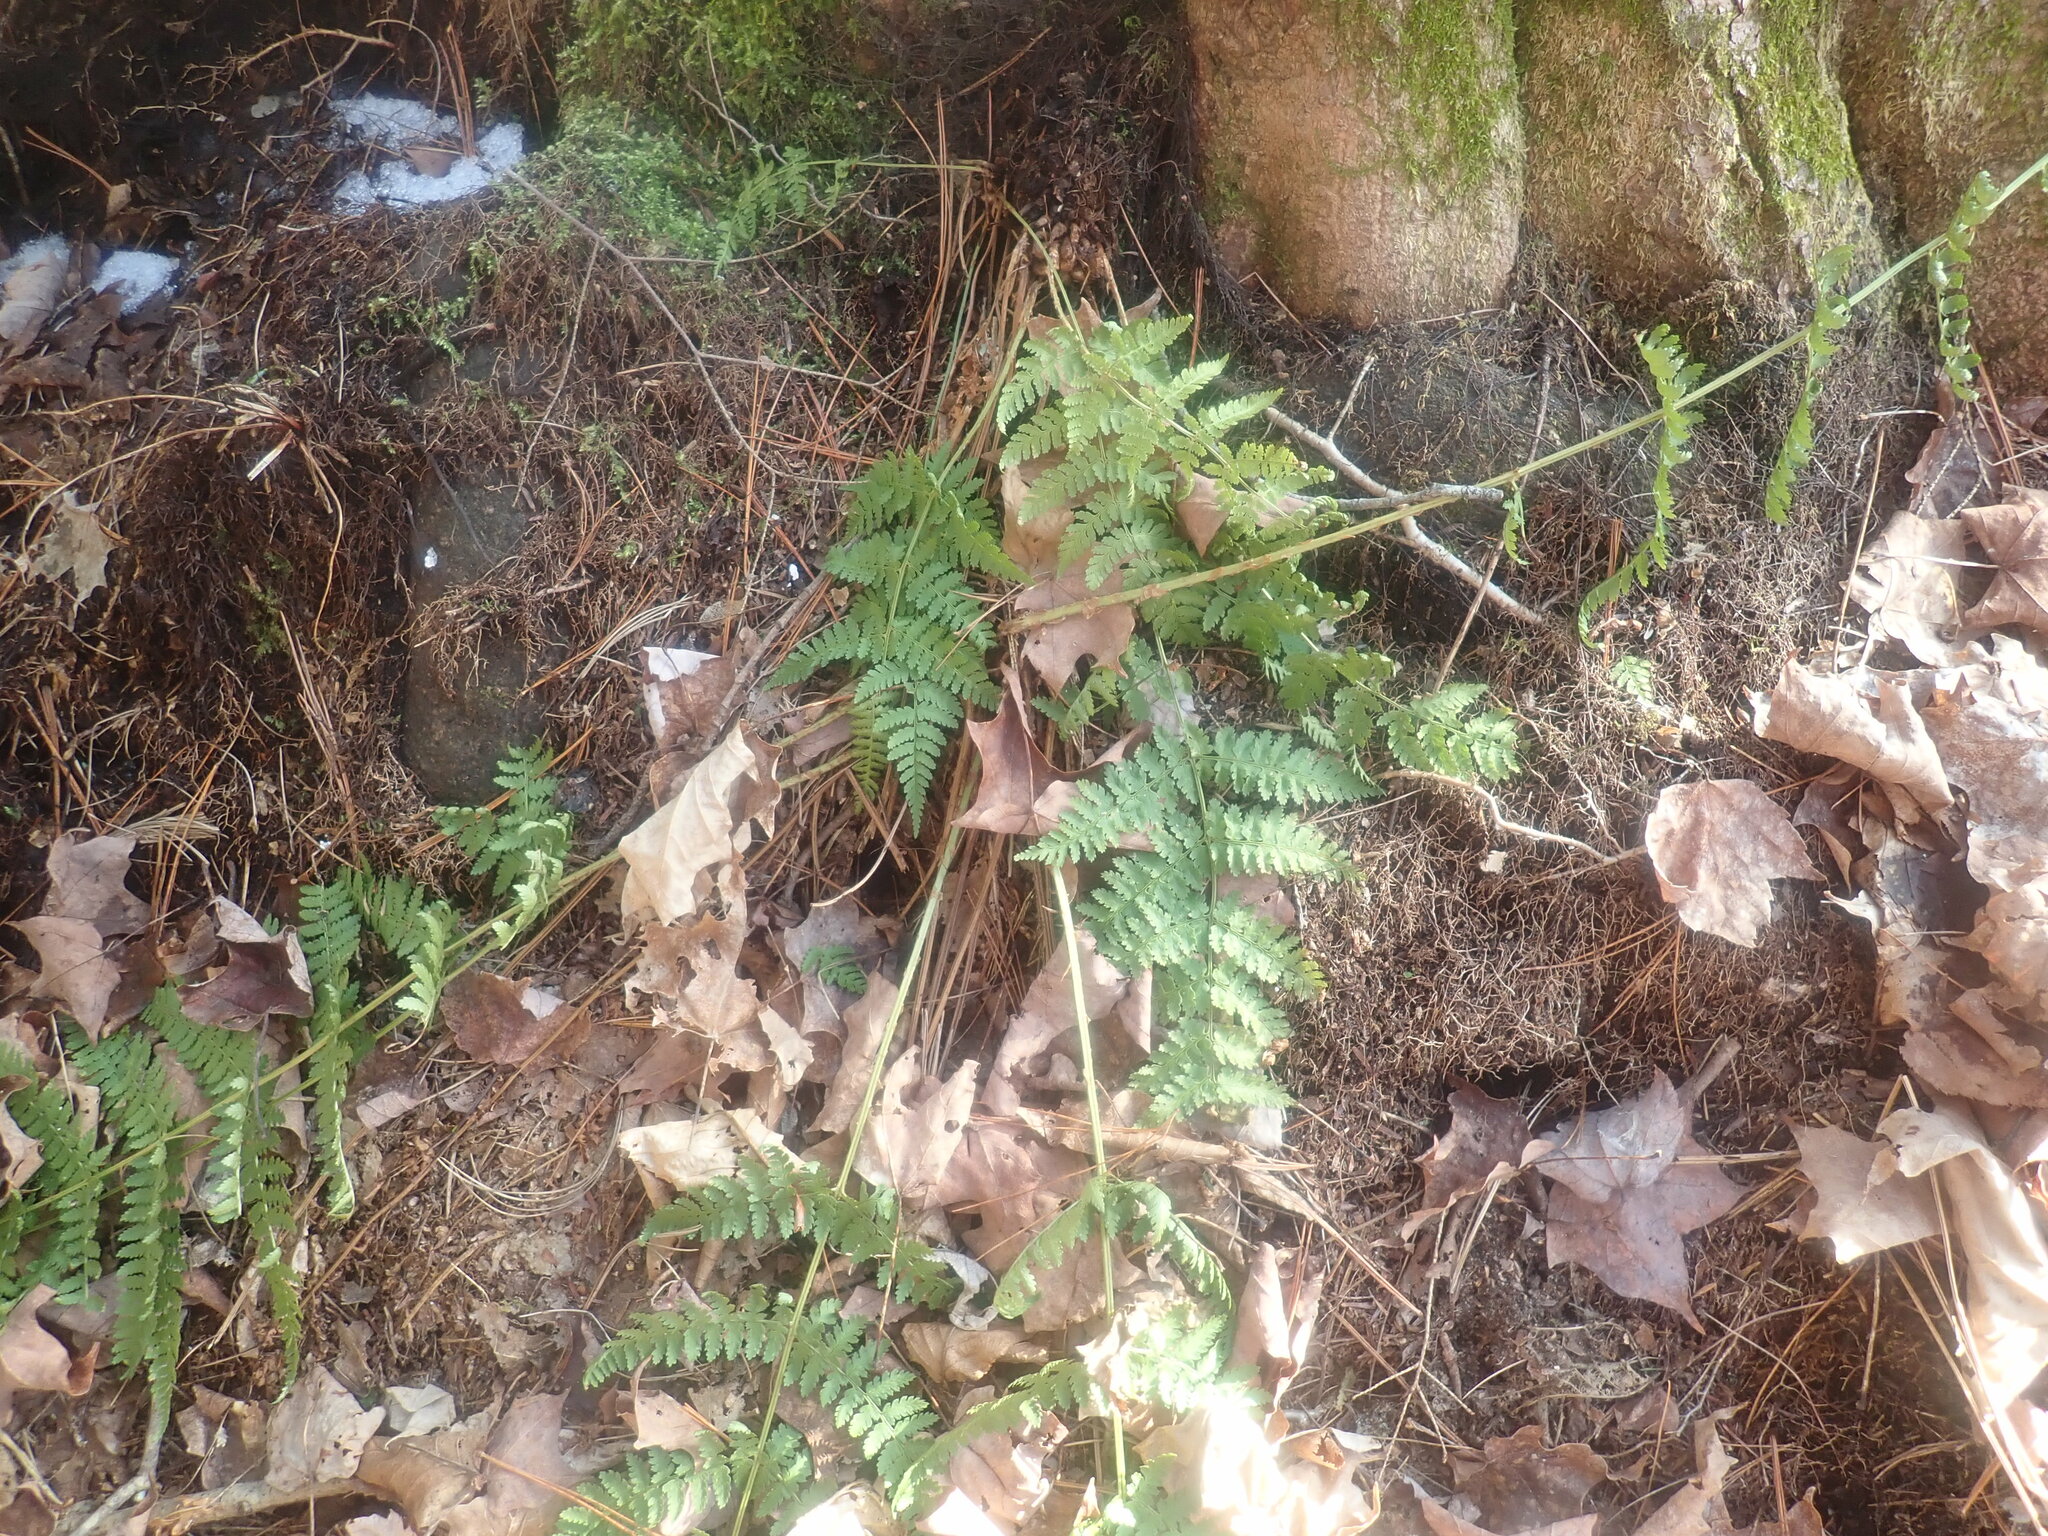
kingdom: Plantae
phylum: Tracheophyta
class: Polypodiopsida
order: Polypodiales
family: Dryopteridaceae
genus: Dryopteris
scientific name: Dryopteris intermedia
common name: Evergreen wood fern
